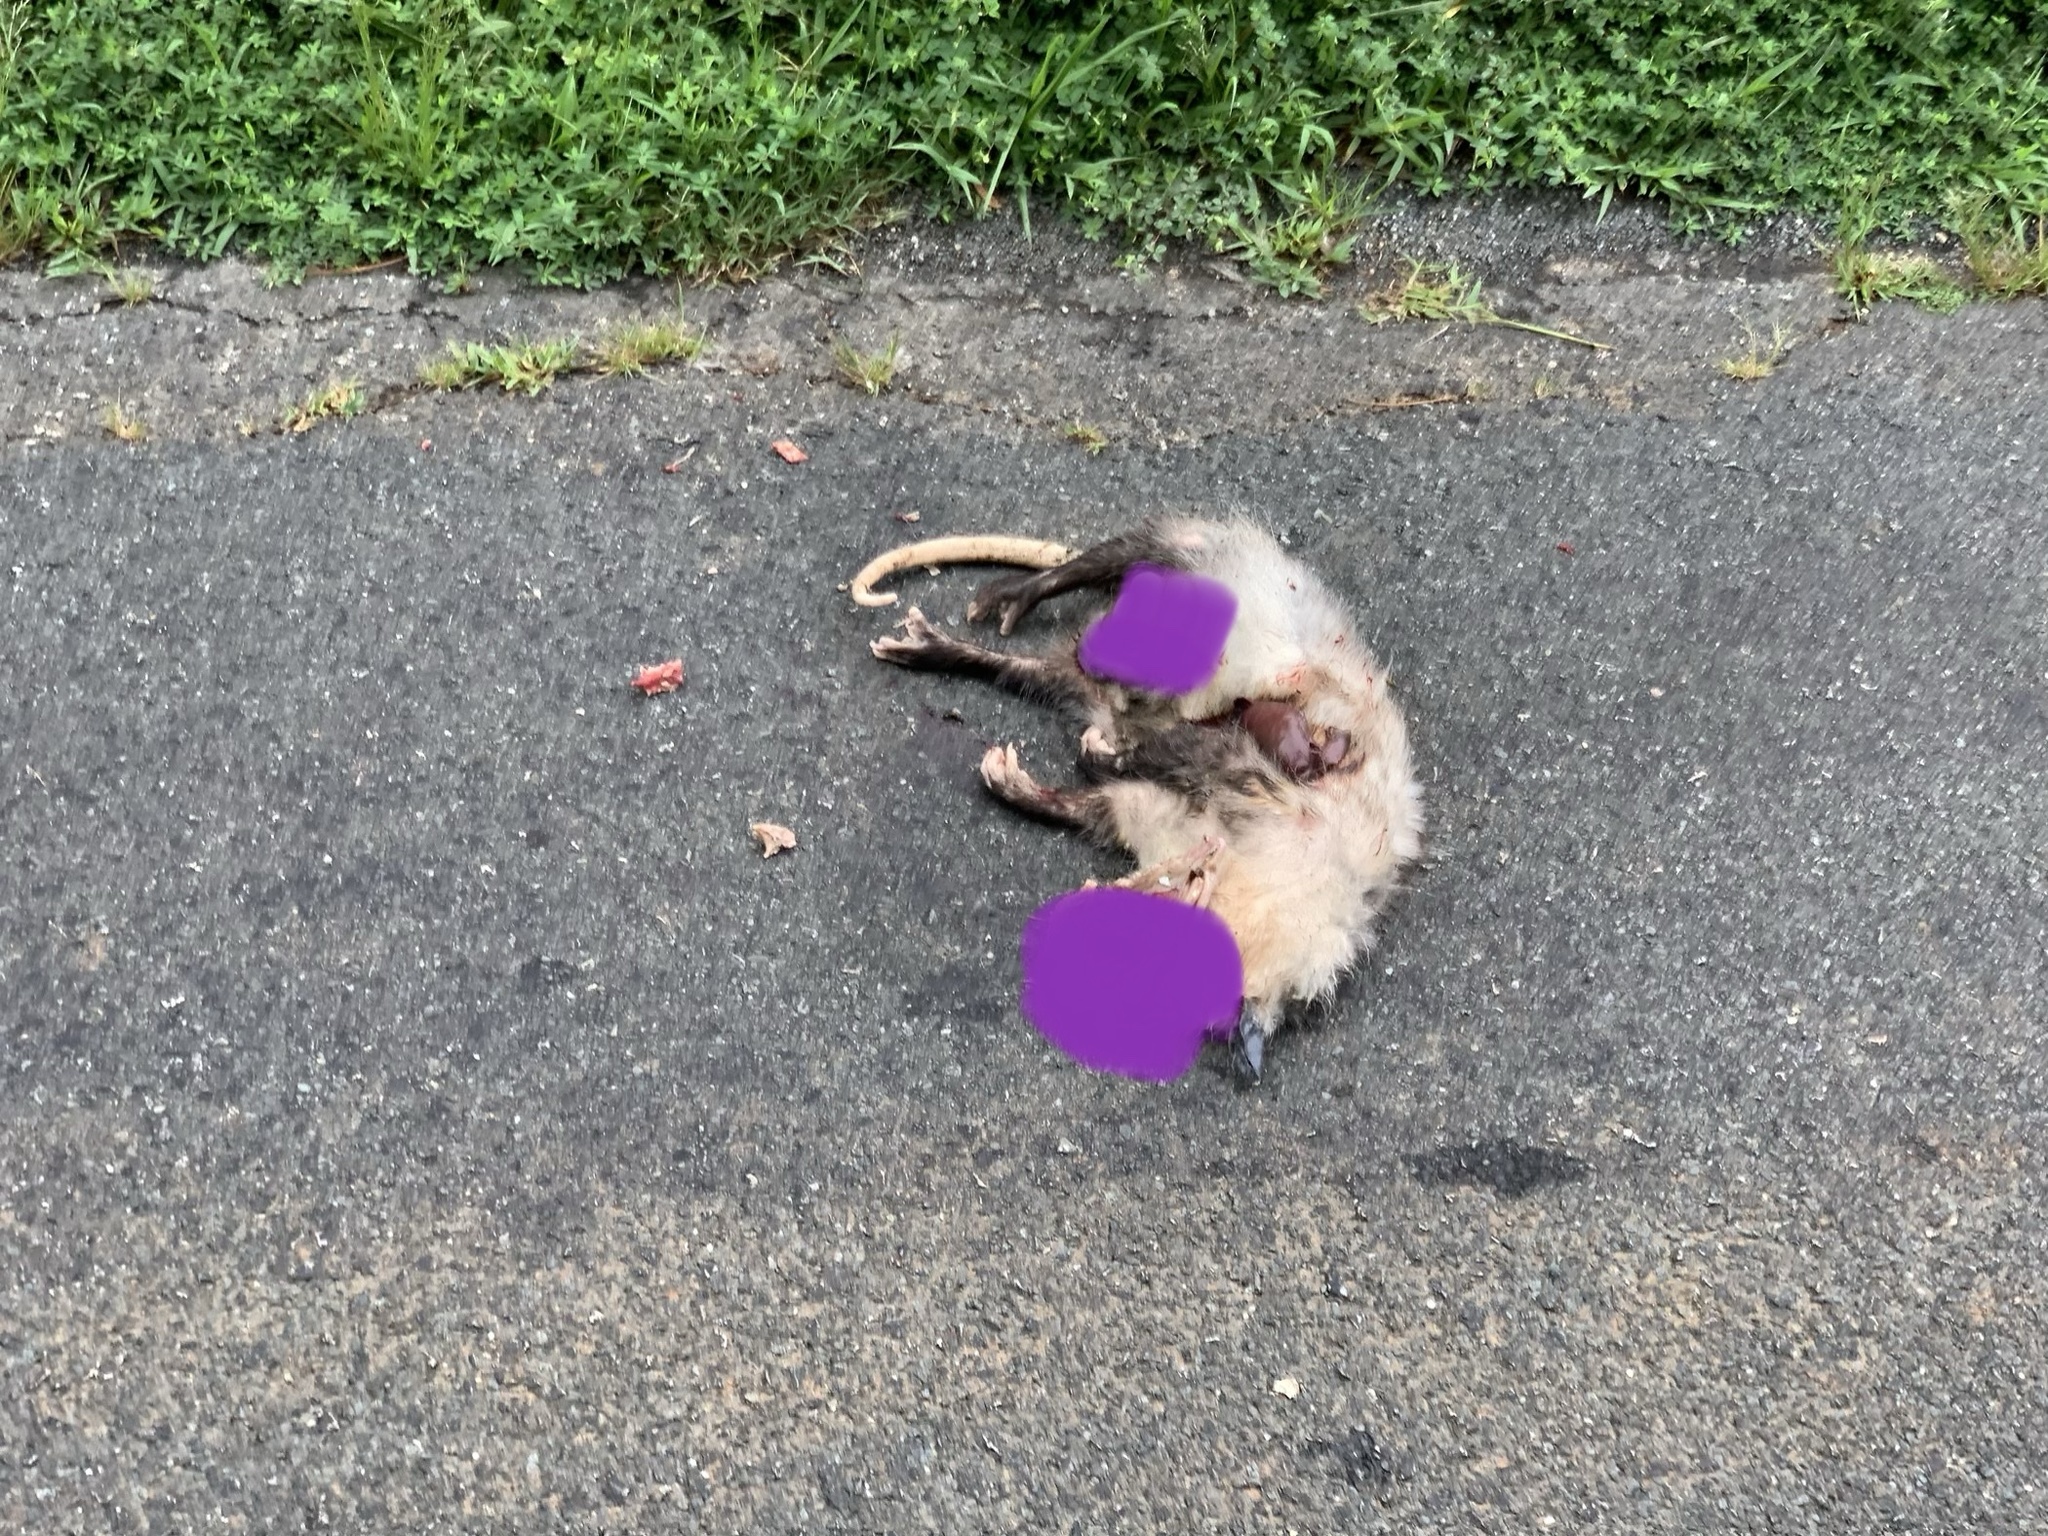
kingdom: Animalia
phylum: Chordata
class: Mammalia
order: Didelphimorphia
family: Didelphidae
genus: Didelphis
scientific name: Didelphis virginiana
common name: Virginia opossum
